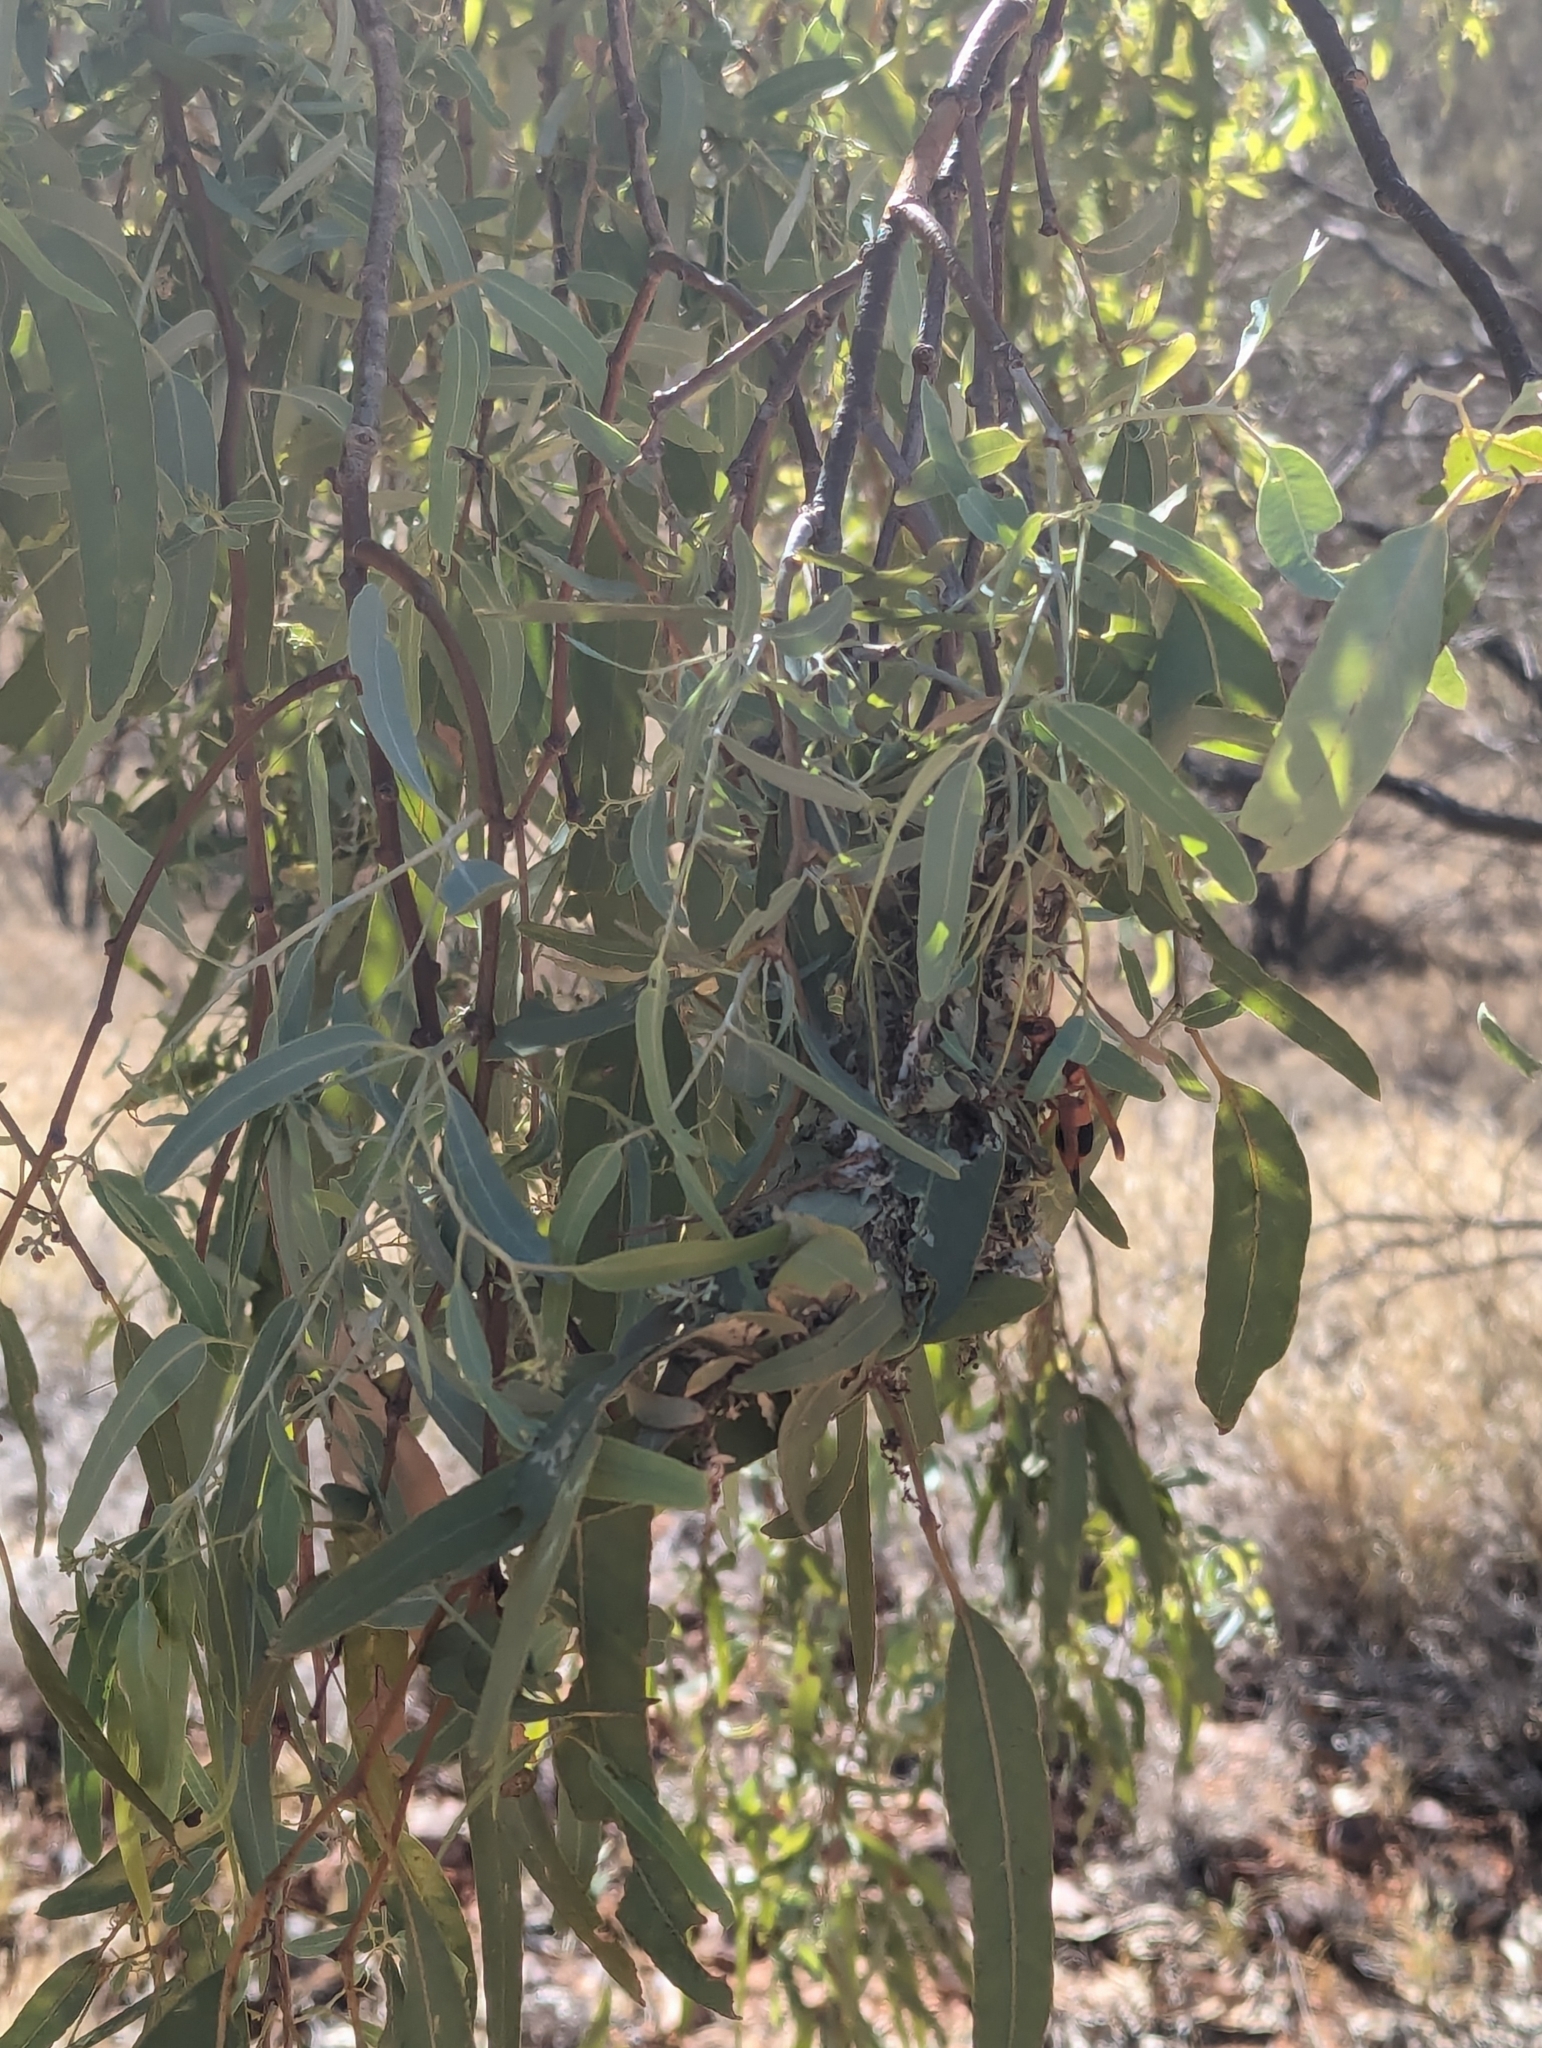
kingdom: Animalia
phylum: Arthropoda
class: Insecta
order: Hymenoptera
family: Eumenidae
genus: Abispa
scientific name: Abispa ephippium
